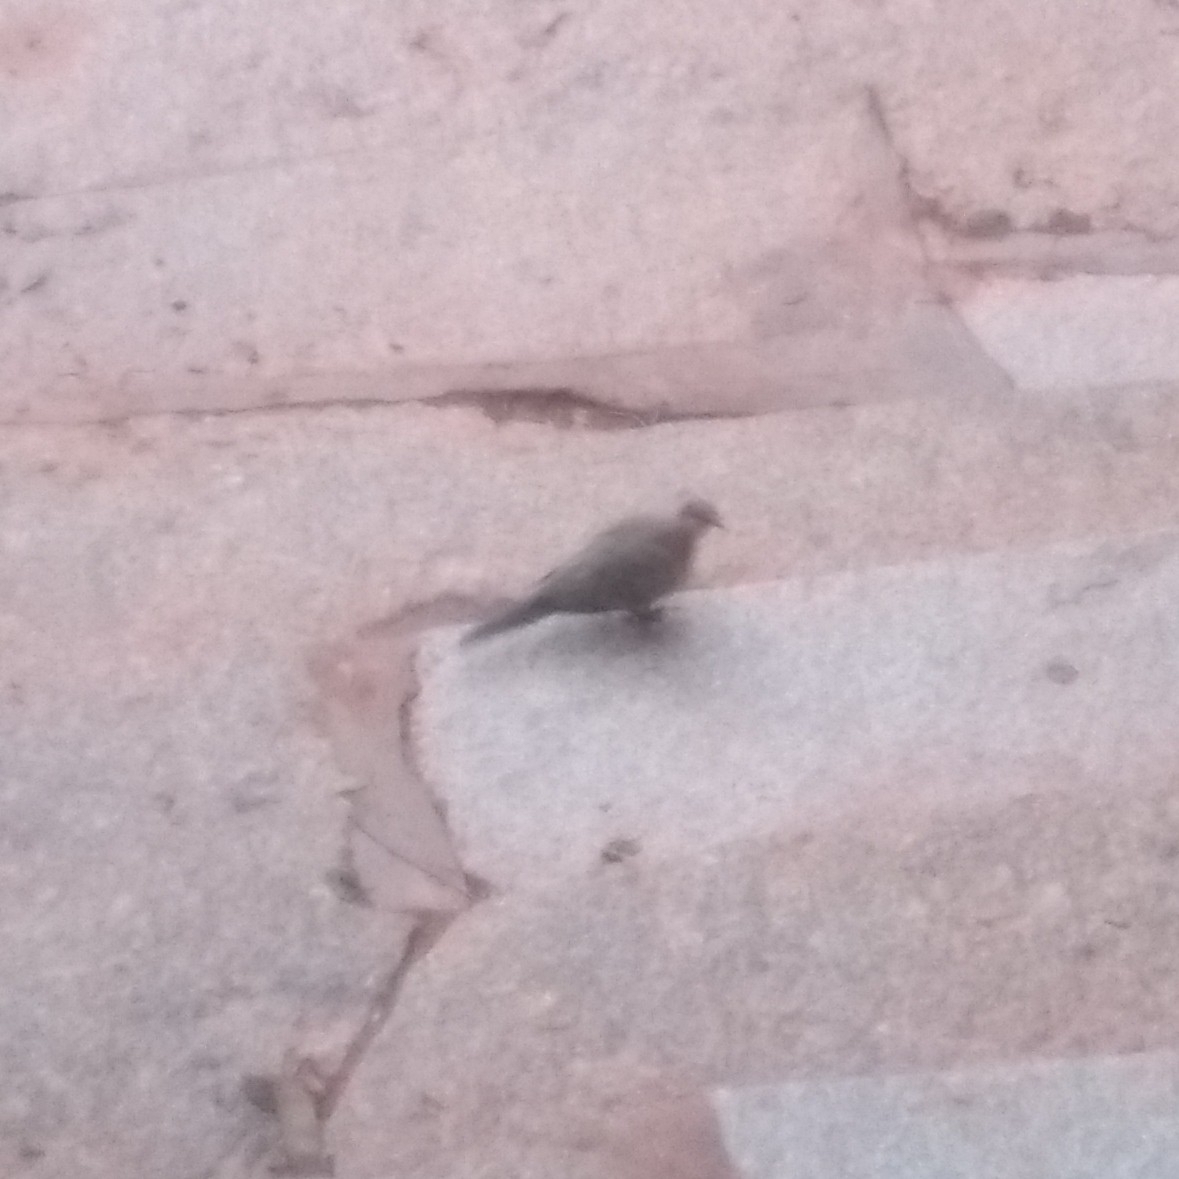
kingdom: Animalia
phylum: Chordata
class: Aves
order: Columbiformes
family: Columbidae
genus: Spilopelia
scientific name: Spilopelia senegalensis
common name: Laughing dove
